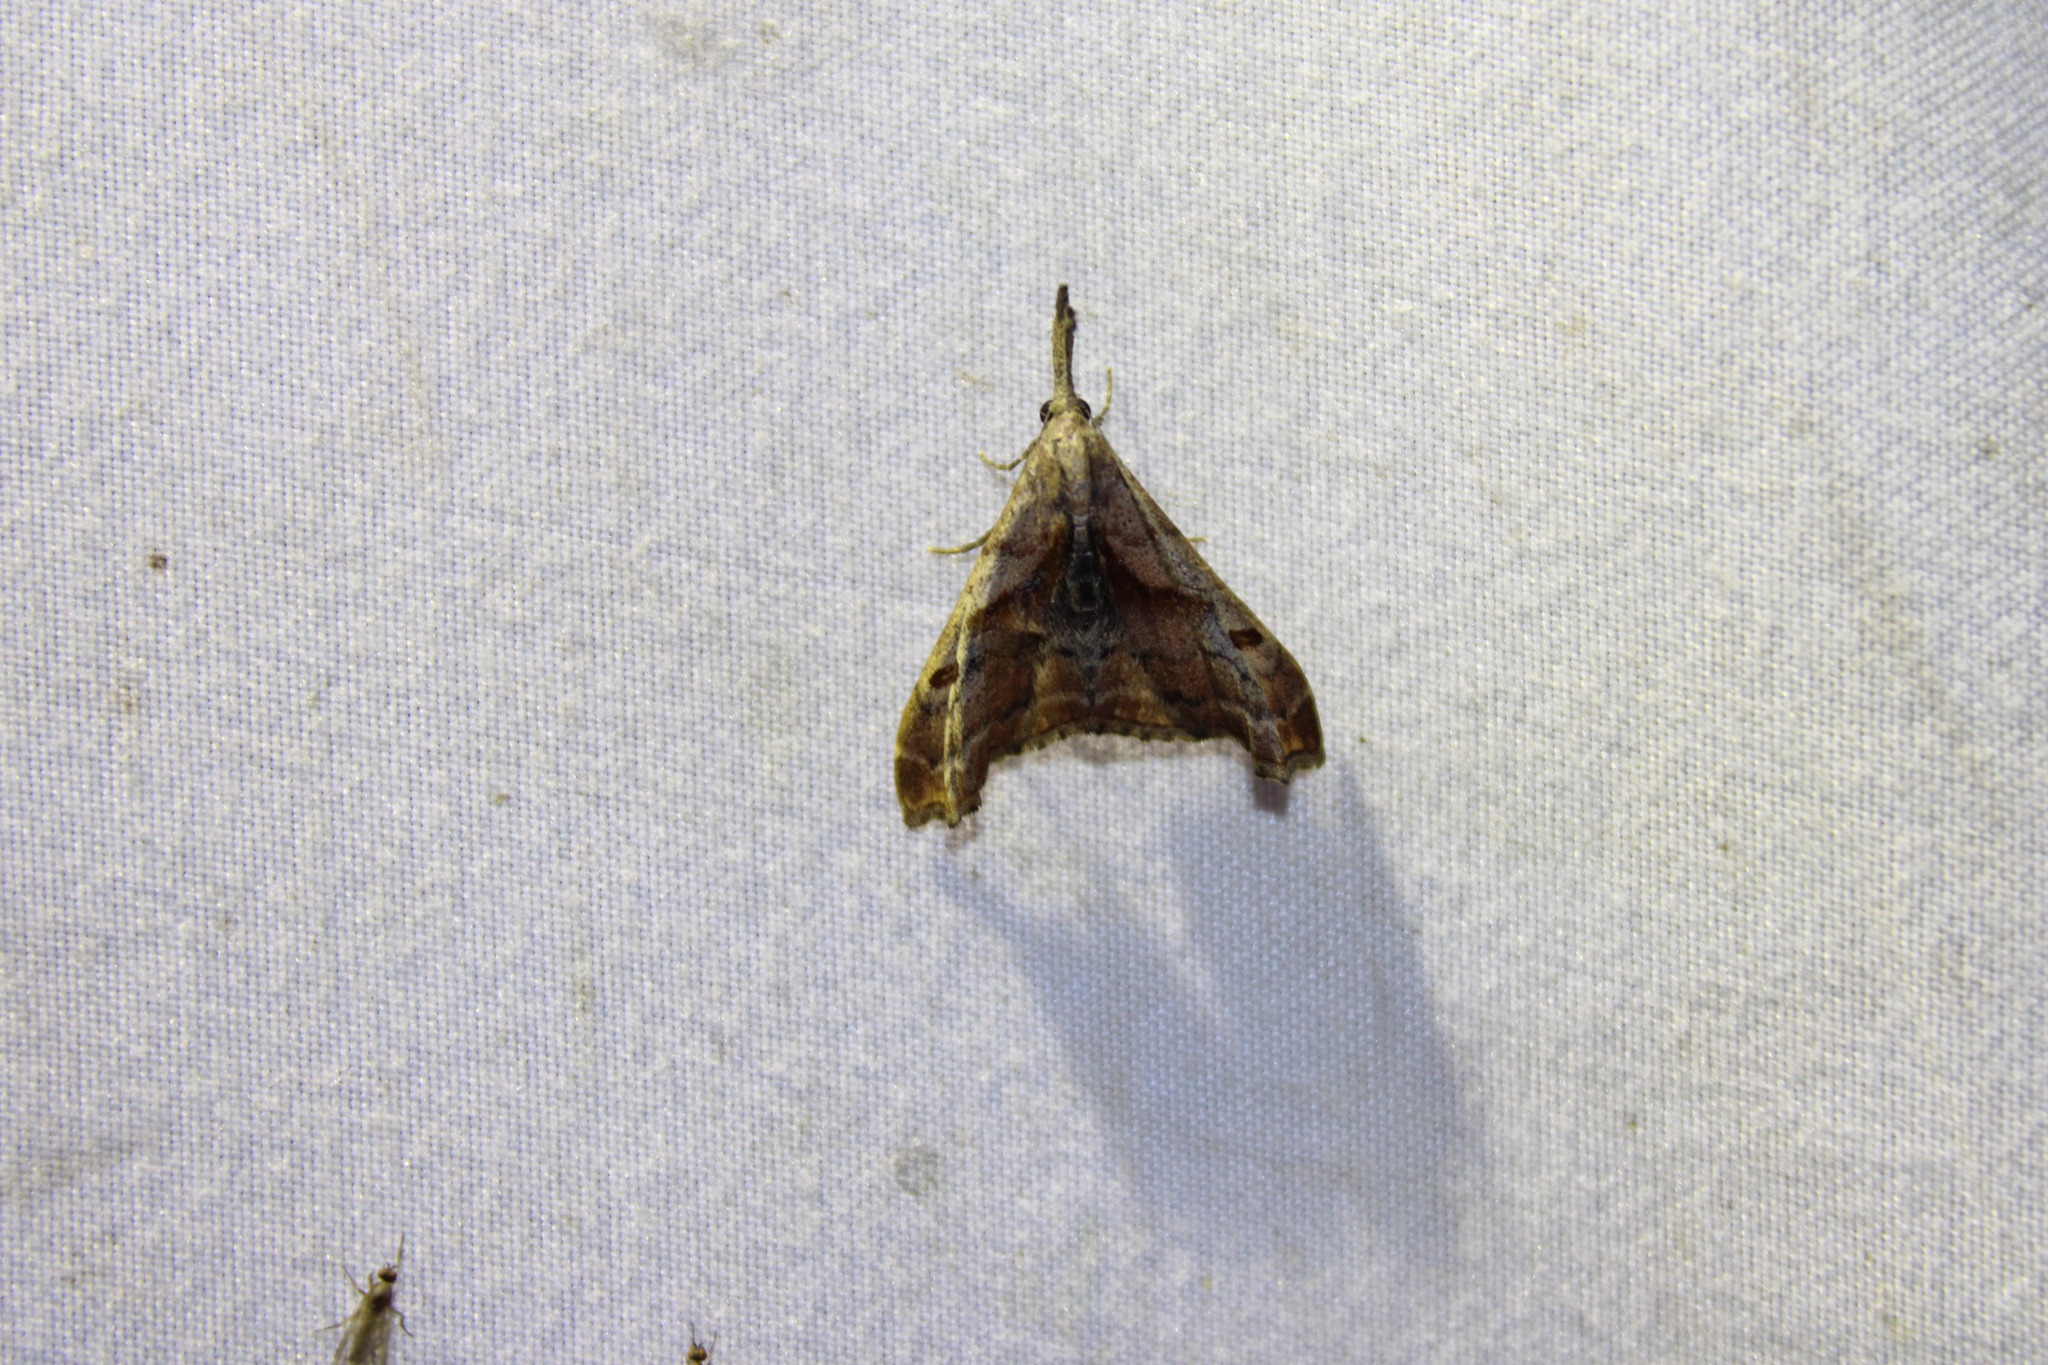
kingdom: Animalia
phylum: Arthropoda
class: Insecta
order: Lepidoptera
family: Erebidae
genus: Palthis
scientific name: Palthis angulalis
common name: Dark-spotted palthis moth
